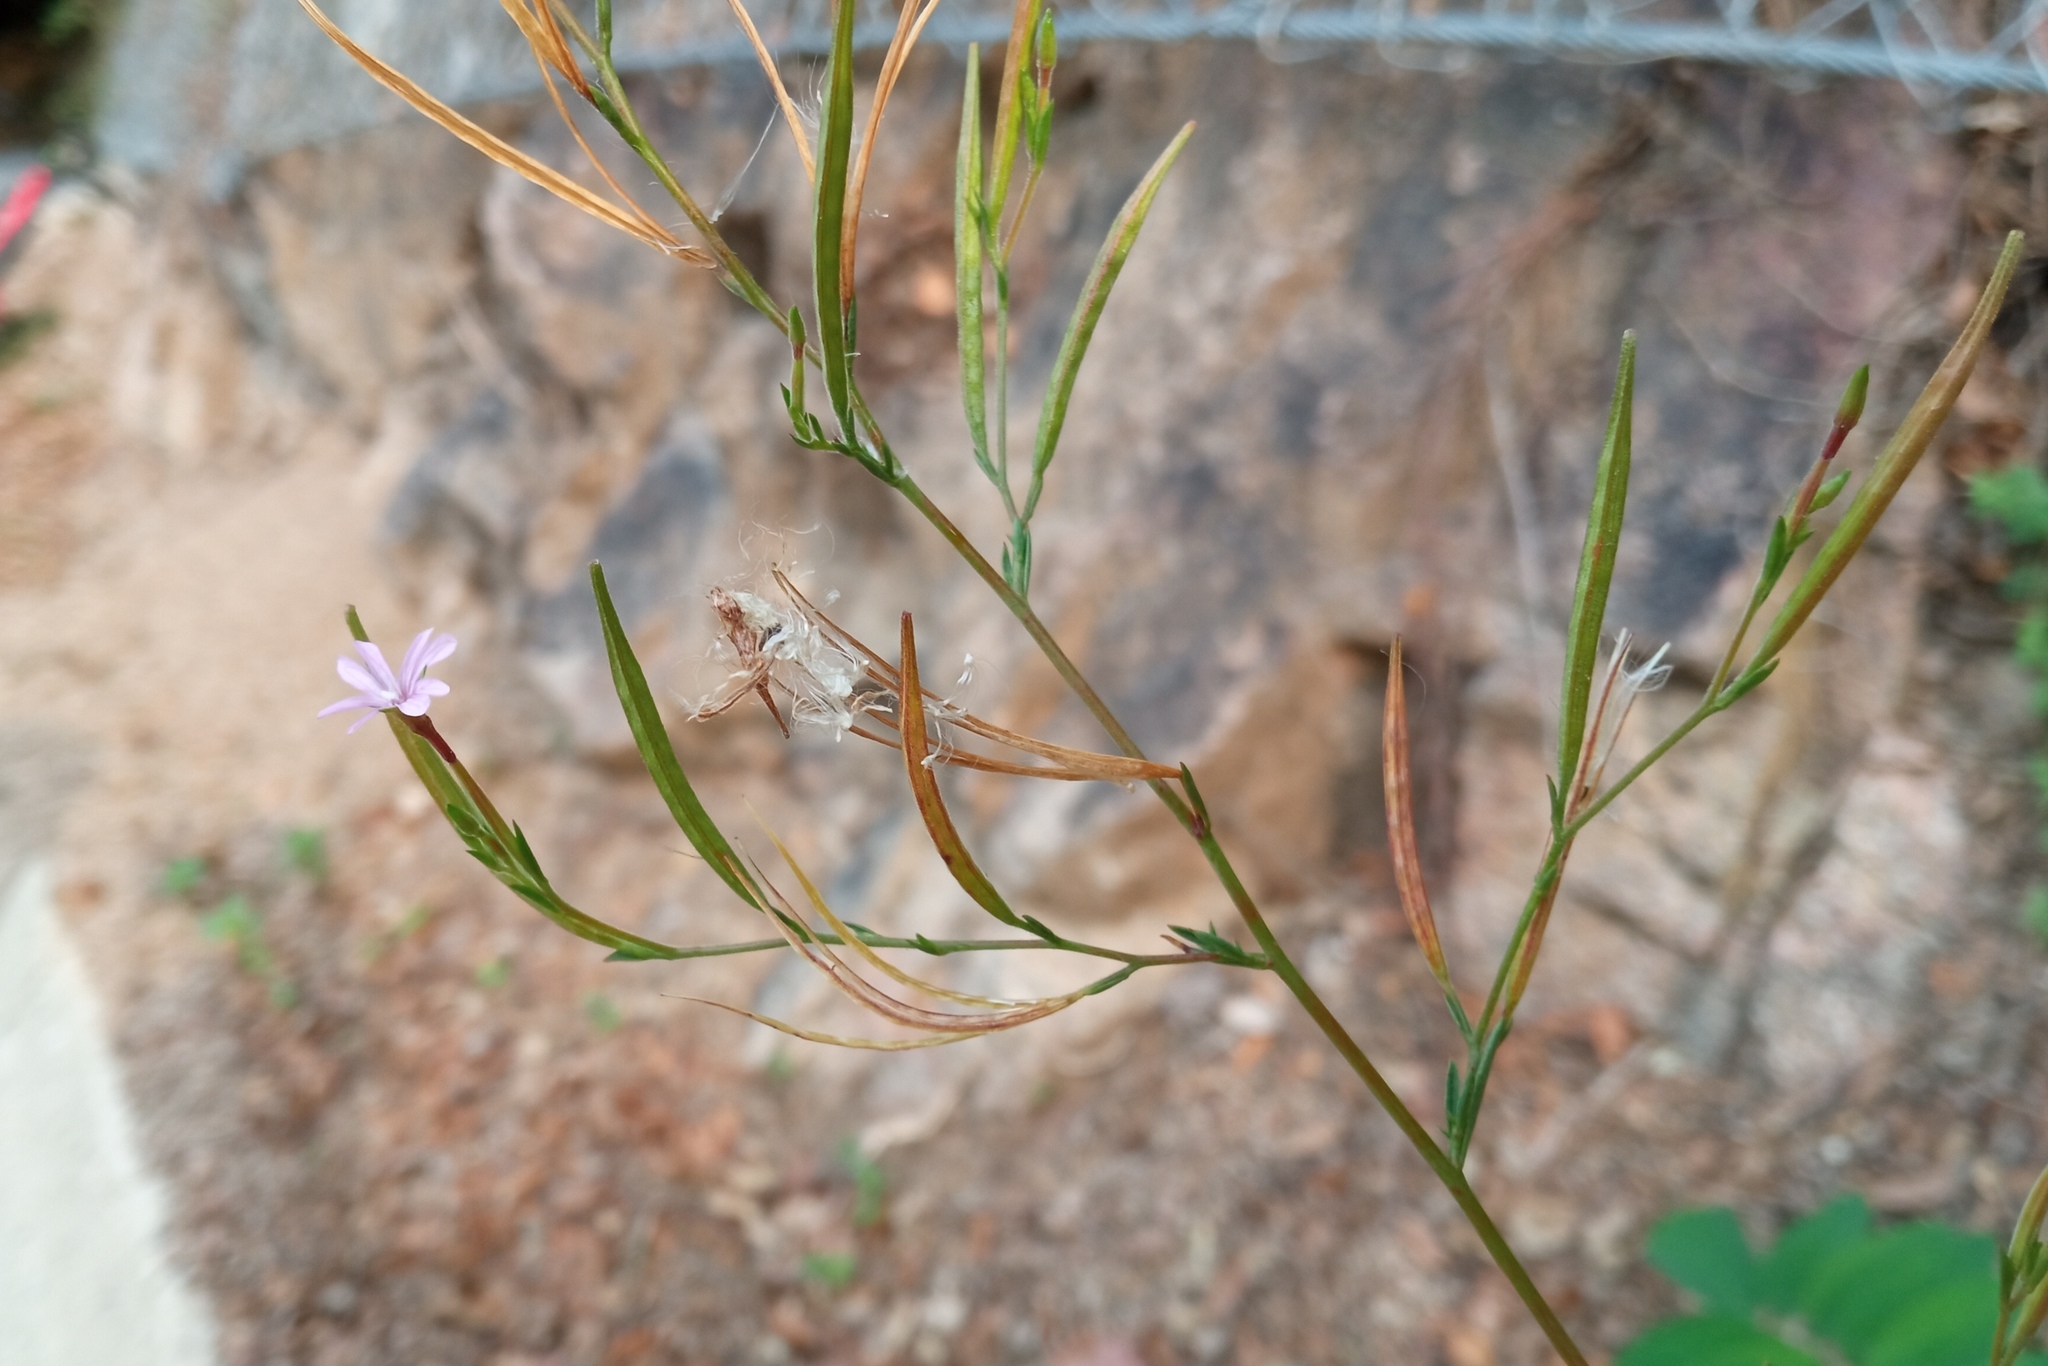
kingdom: Plantae
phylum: Tracheophyta
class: Magnoliopsida
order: Myrtales
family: Onagraceae
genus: Epilobium
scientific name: Epilobium brachycarpum
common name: Annual willowherb
